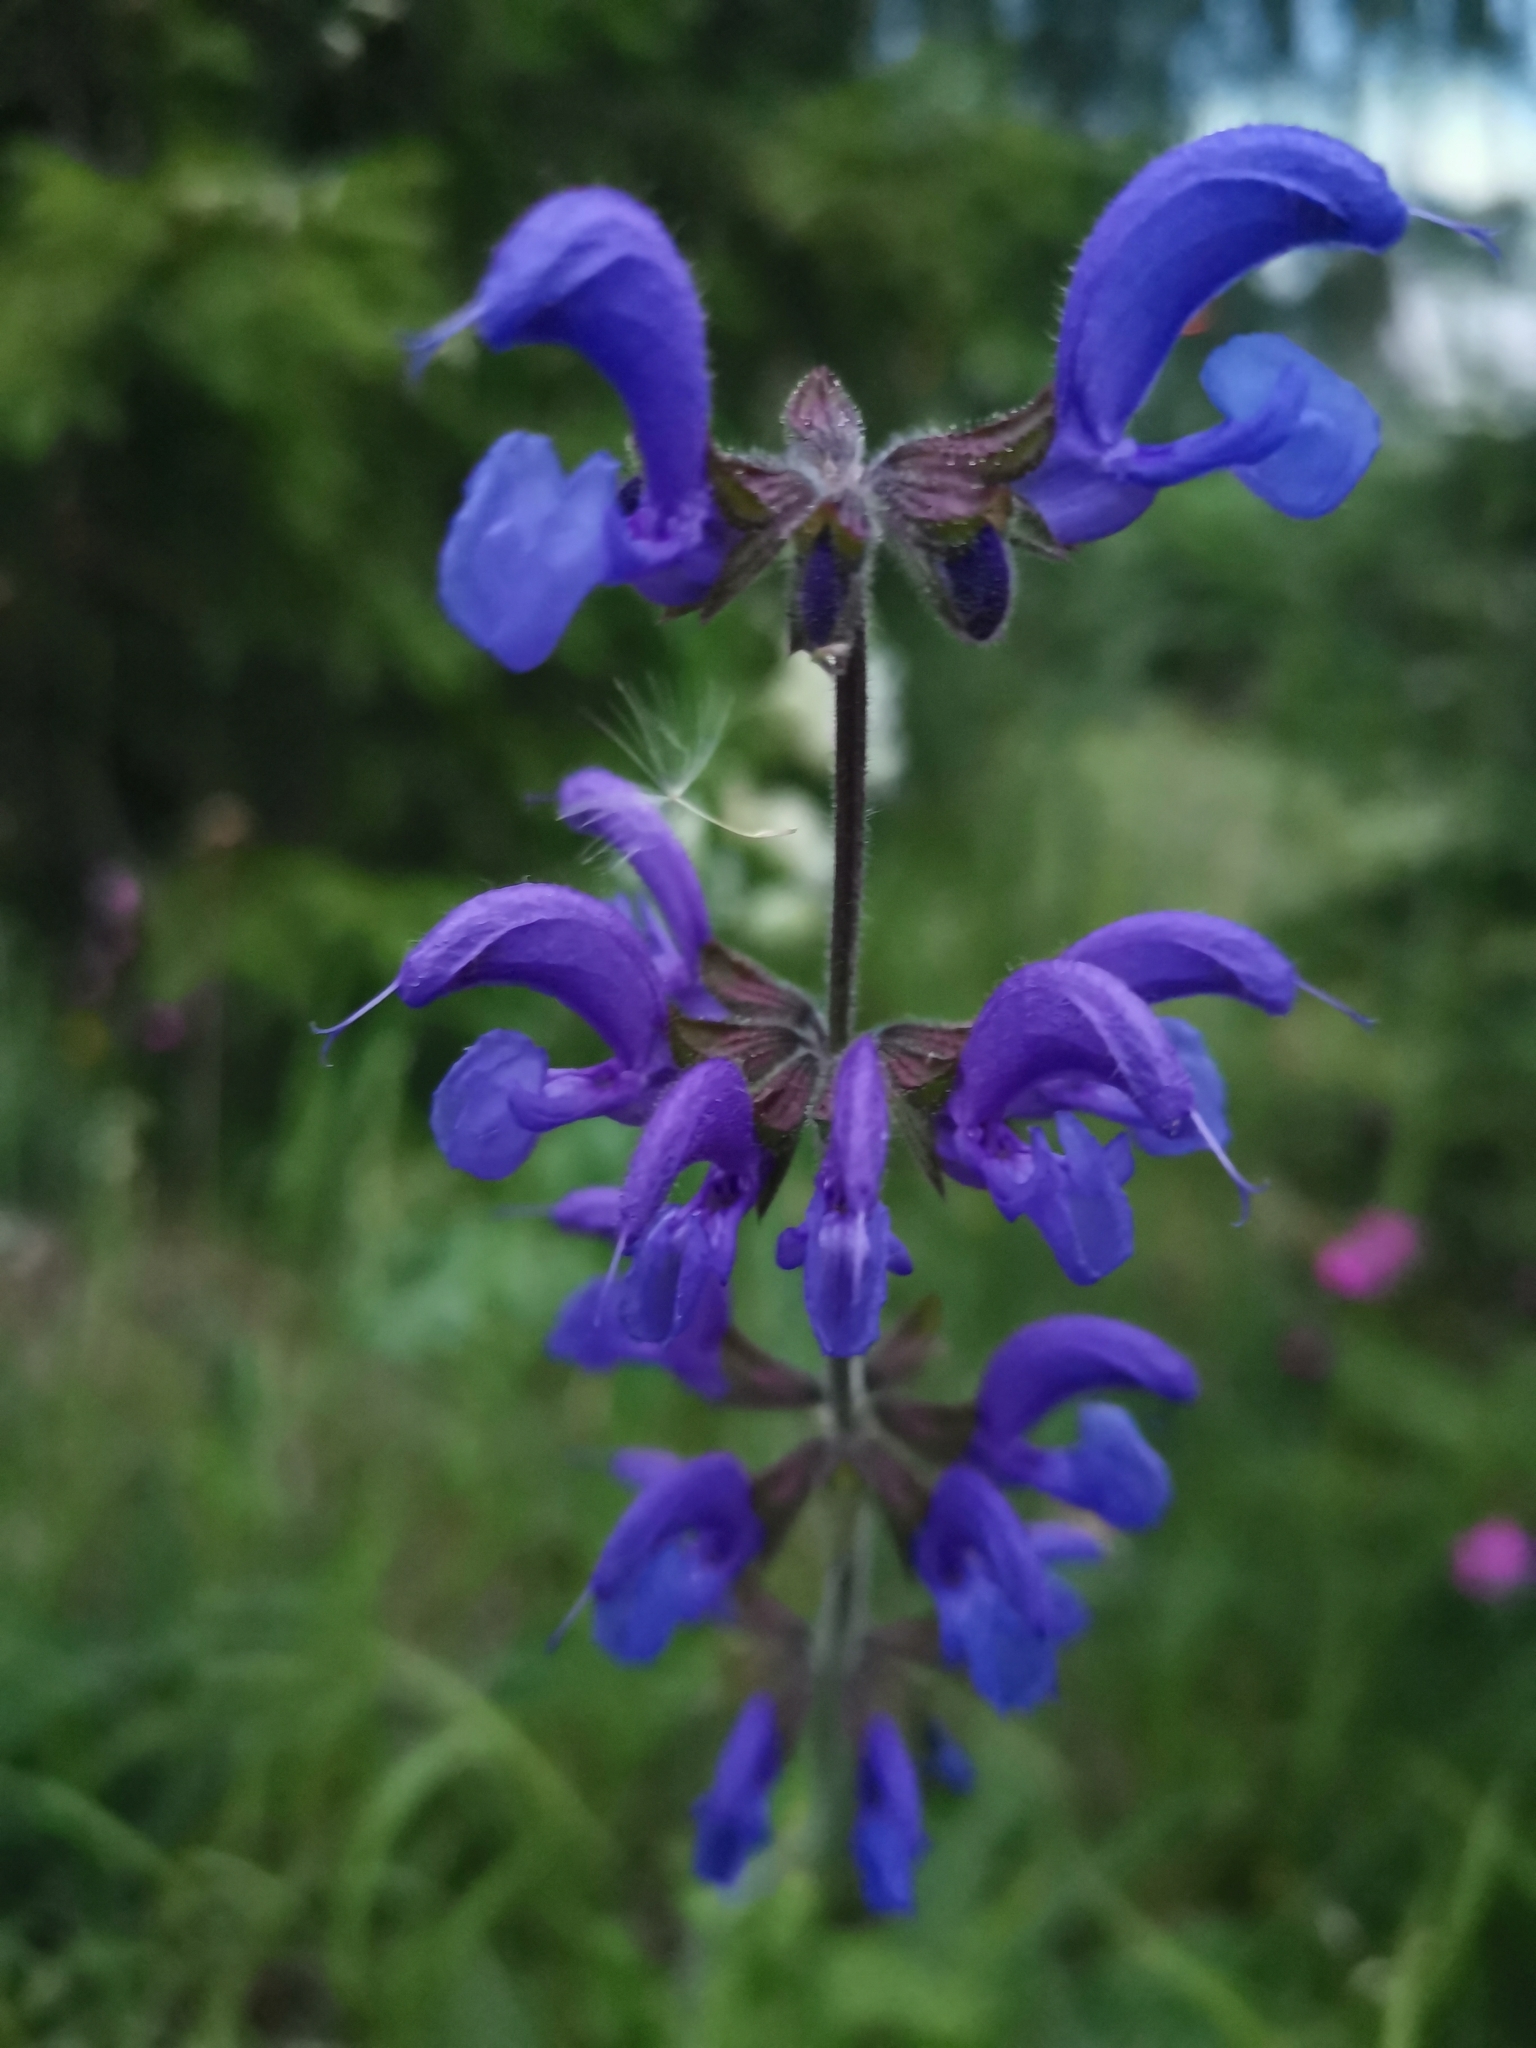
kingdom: Plantae
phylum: Tracheophyta
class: Magnoliopsida
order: Lamiales
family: Lamiaceae
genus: Salvia
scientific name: Salvia pratensis
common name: Meadow sage
